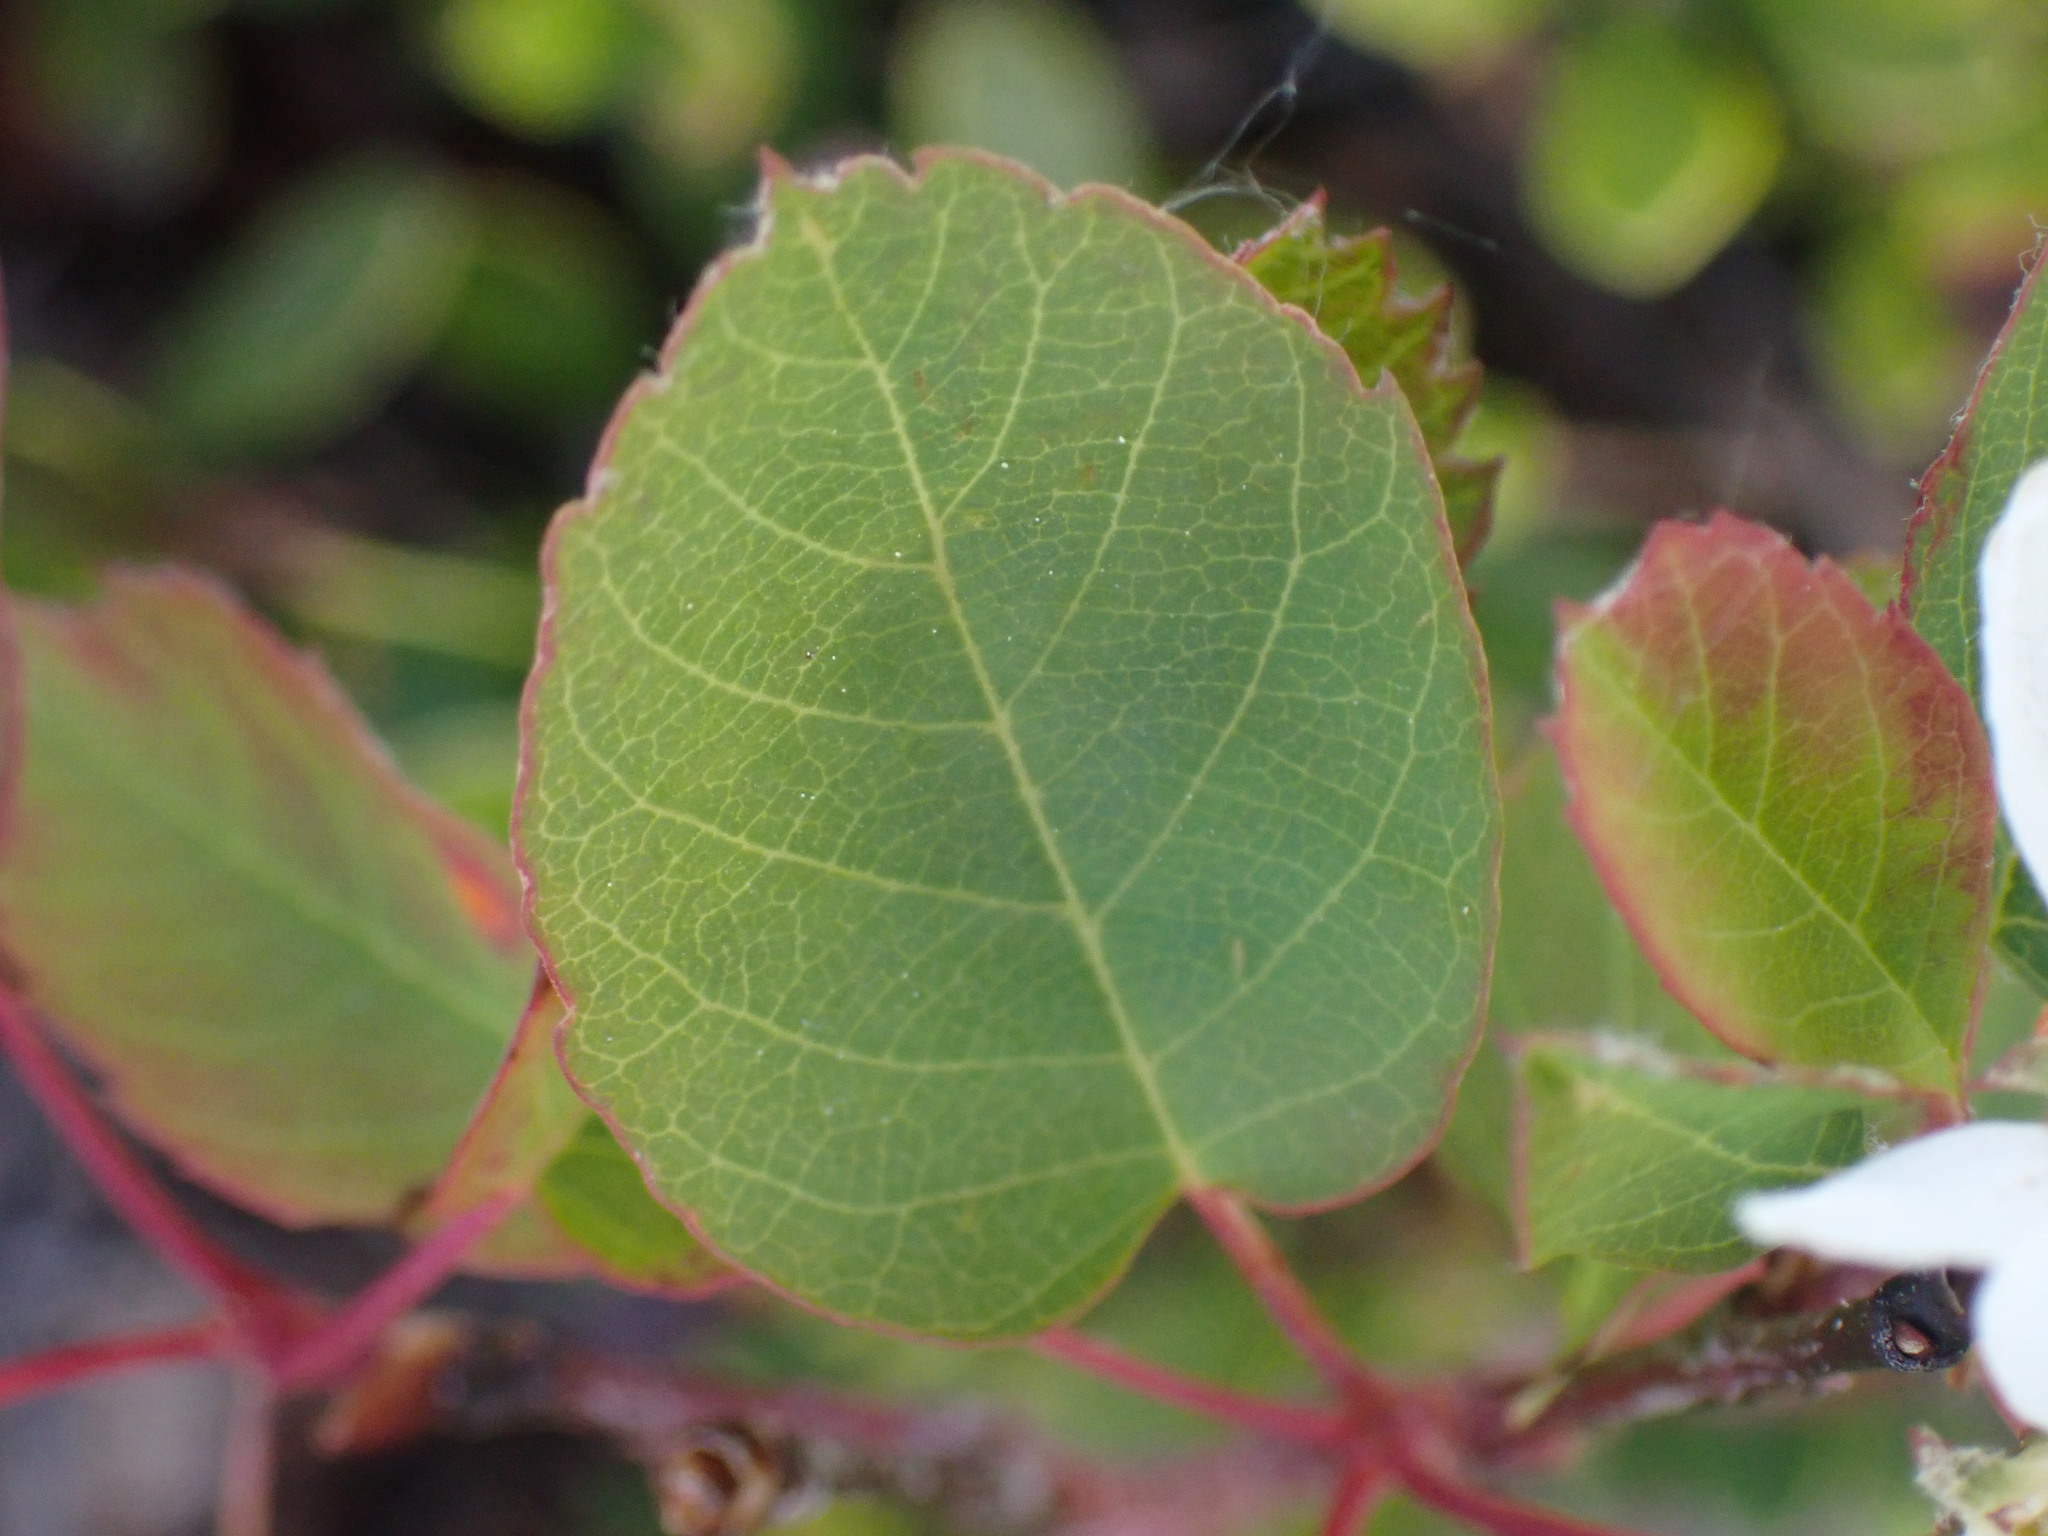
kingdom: Plantae
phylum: Tracheophyta
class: Magnoliopsida
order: Rosales
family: Rosaceae
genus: Amelanchier
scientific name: Amelanchier alnifolia
